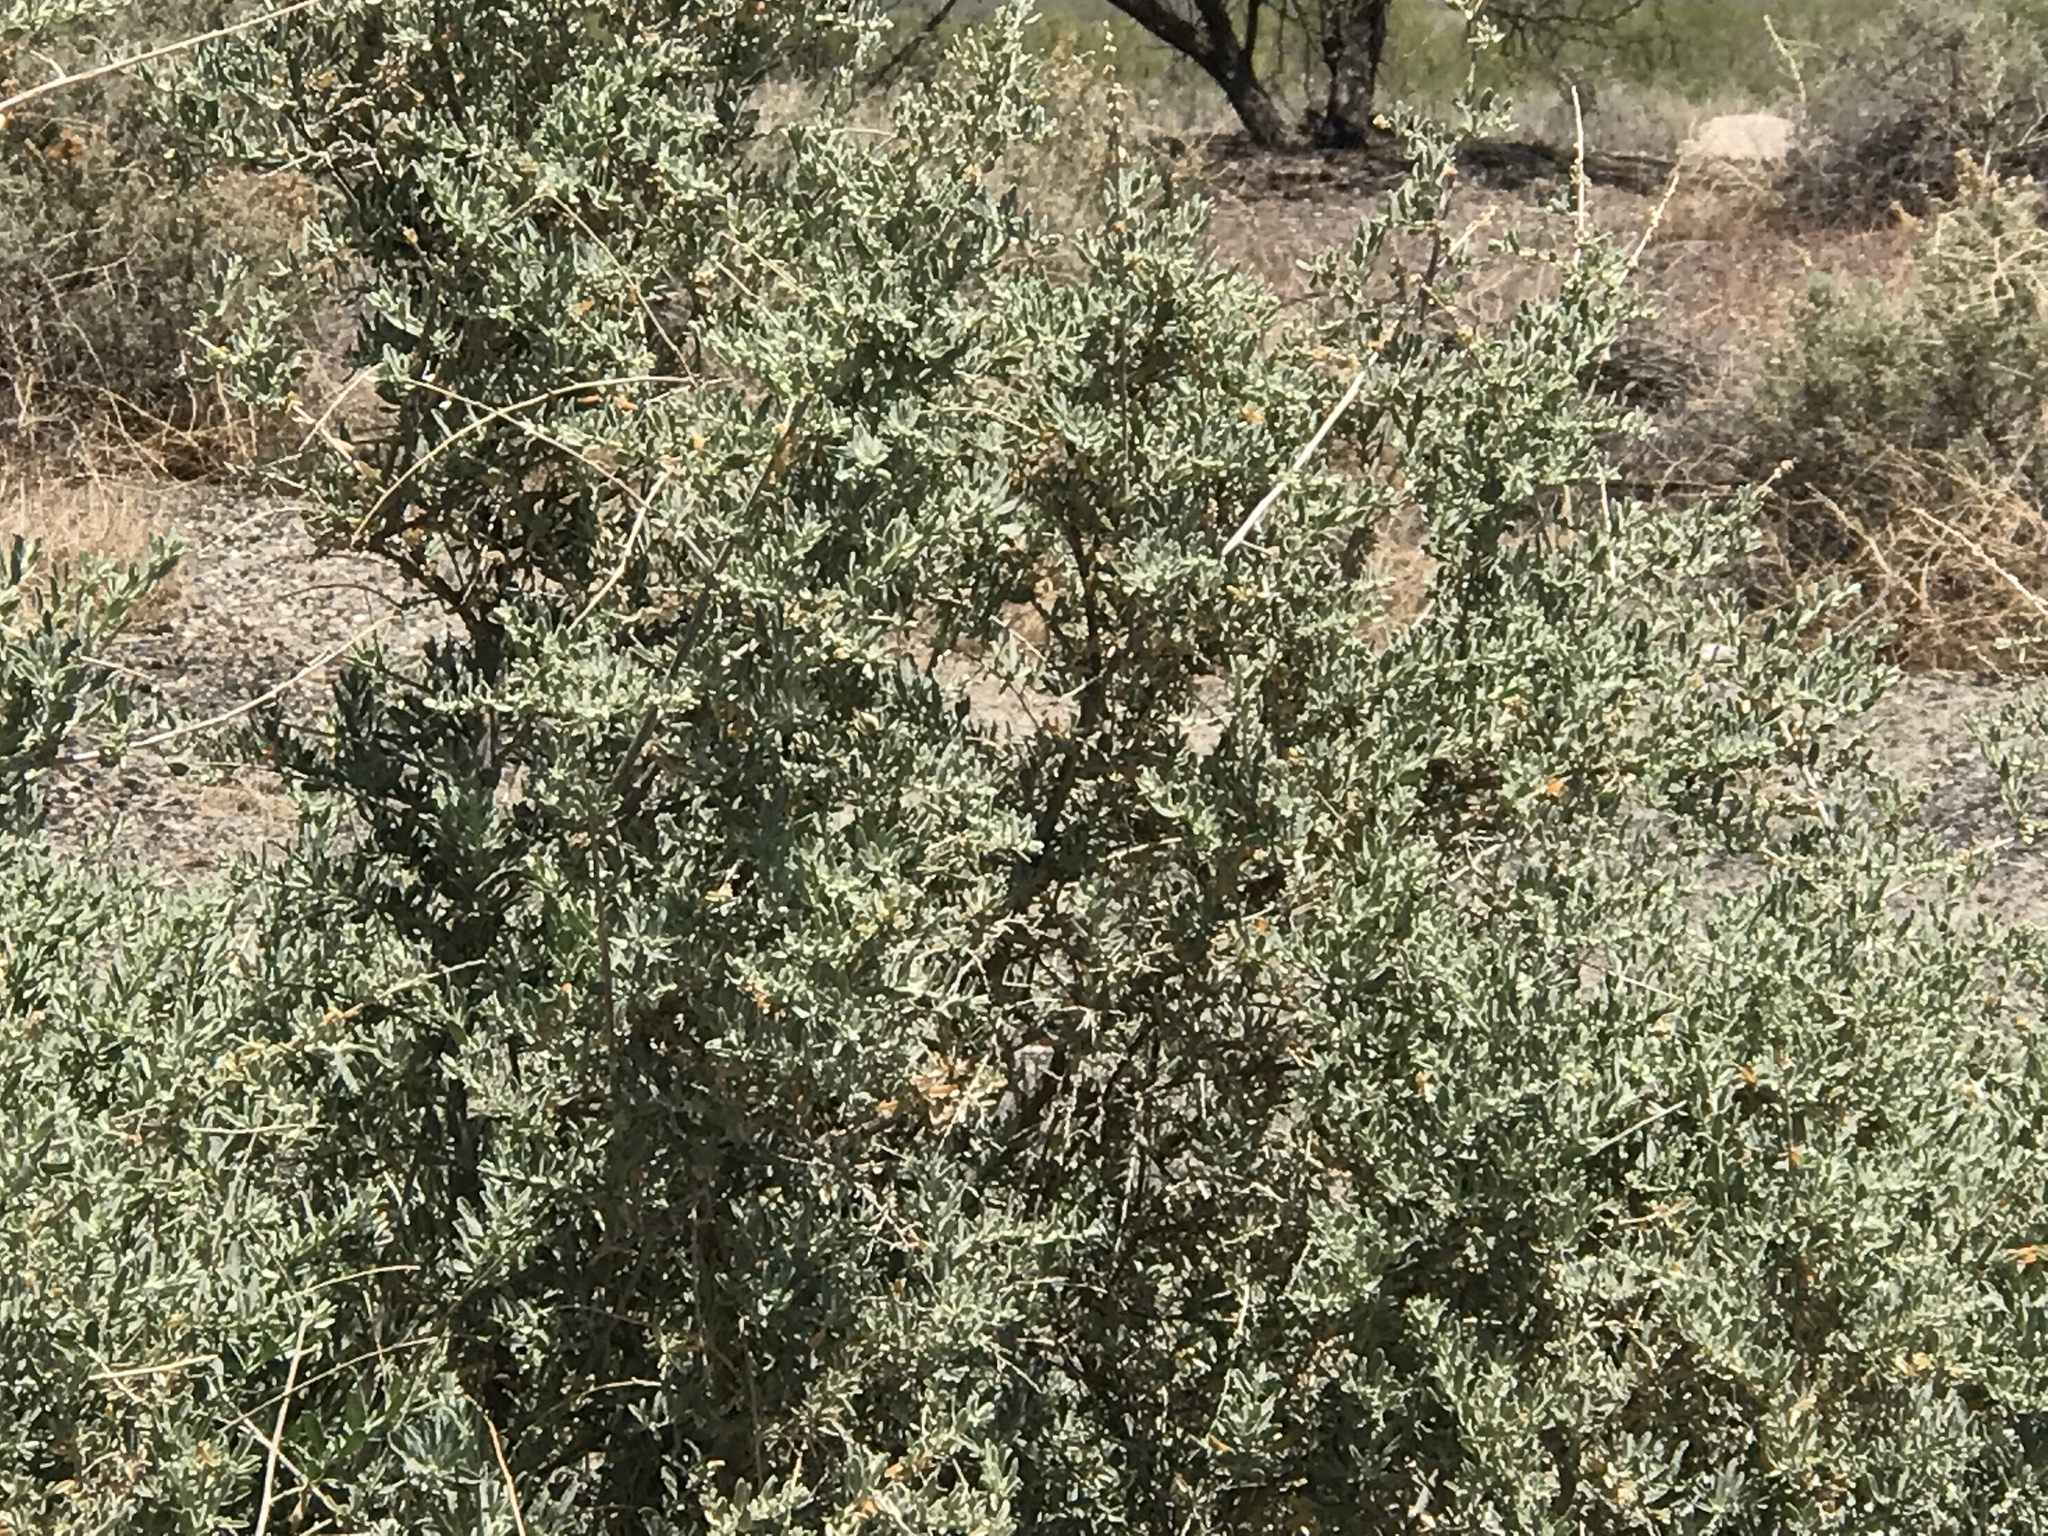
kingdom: Plantae
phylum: Tracheophyta
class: Magnoliopsida
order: Caryophyllales
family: Amaranthaceae
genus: Atriplex
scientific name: Atriplex canescens
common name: Four-wing saltbush
